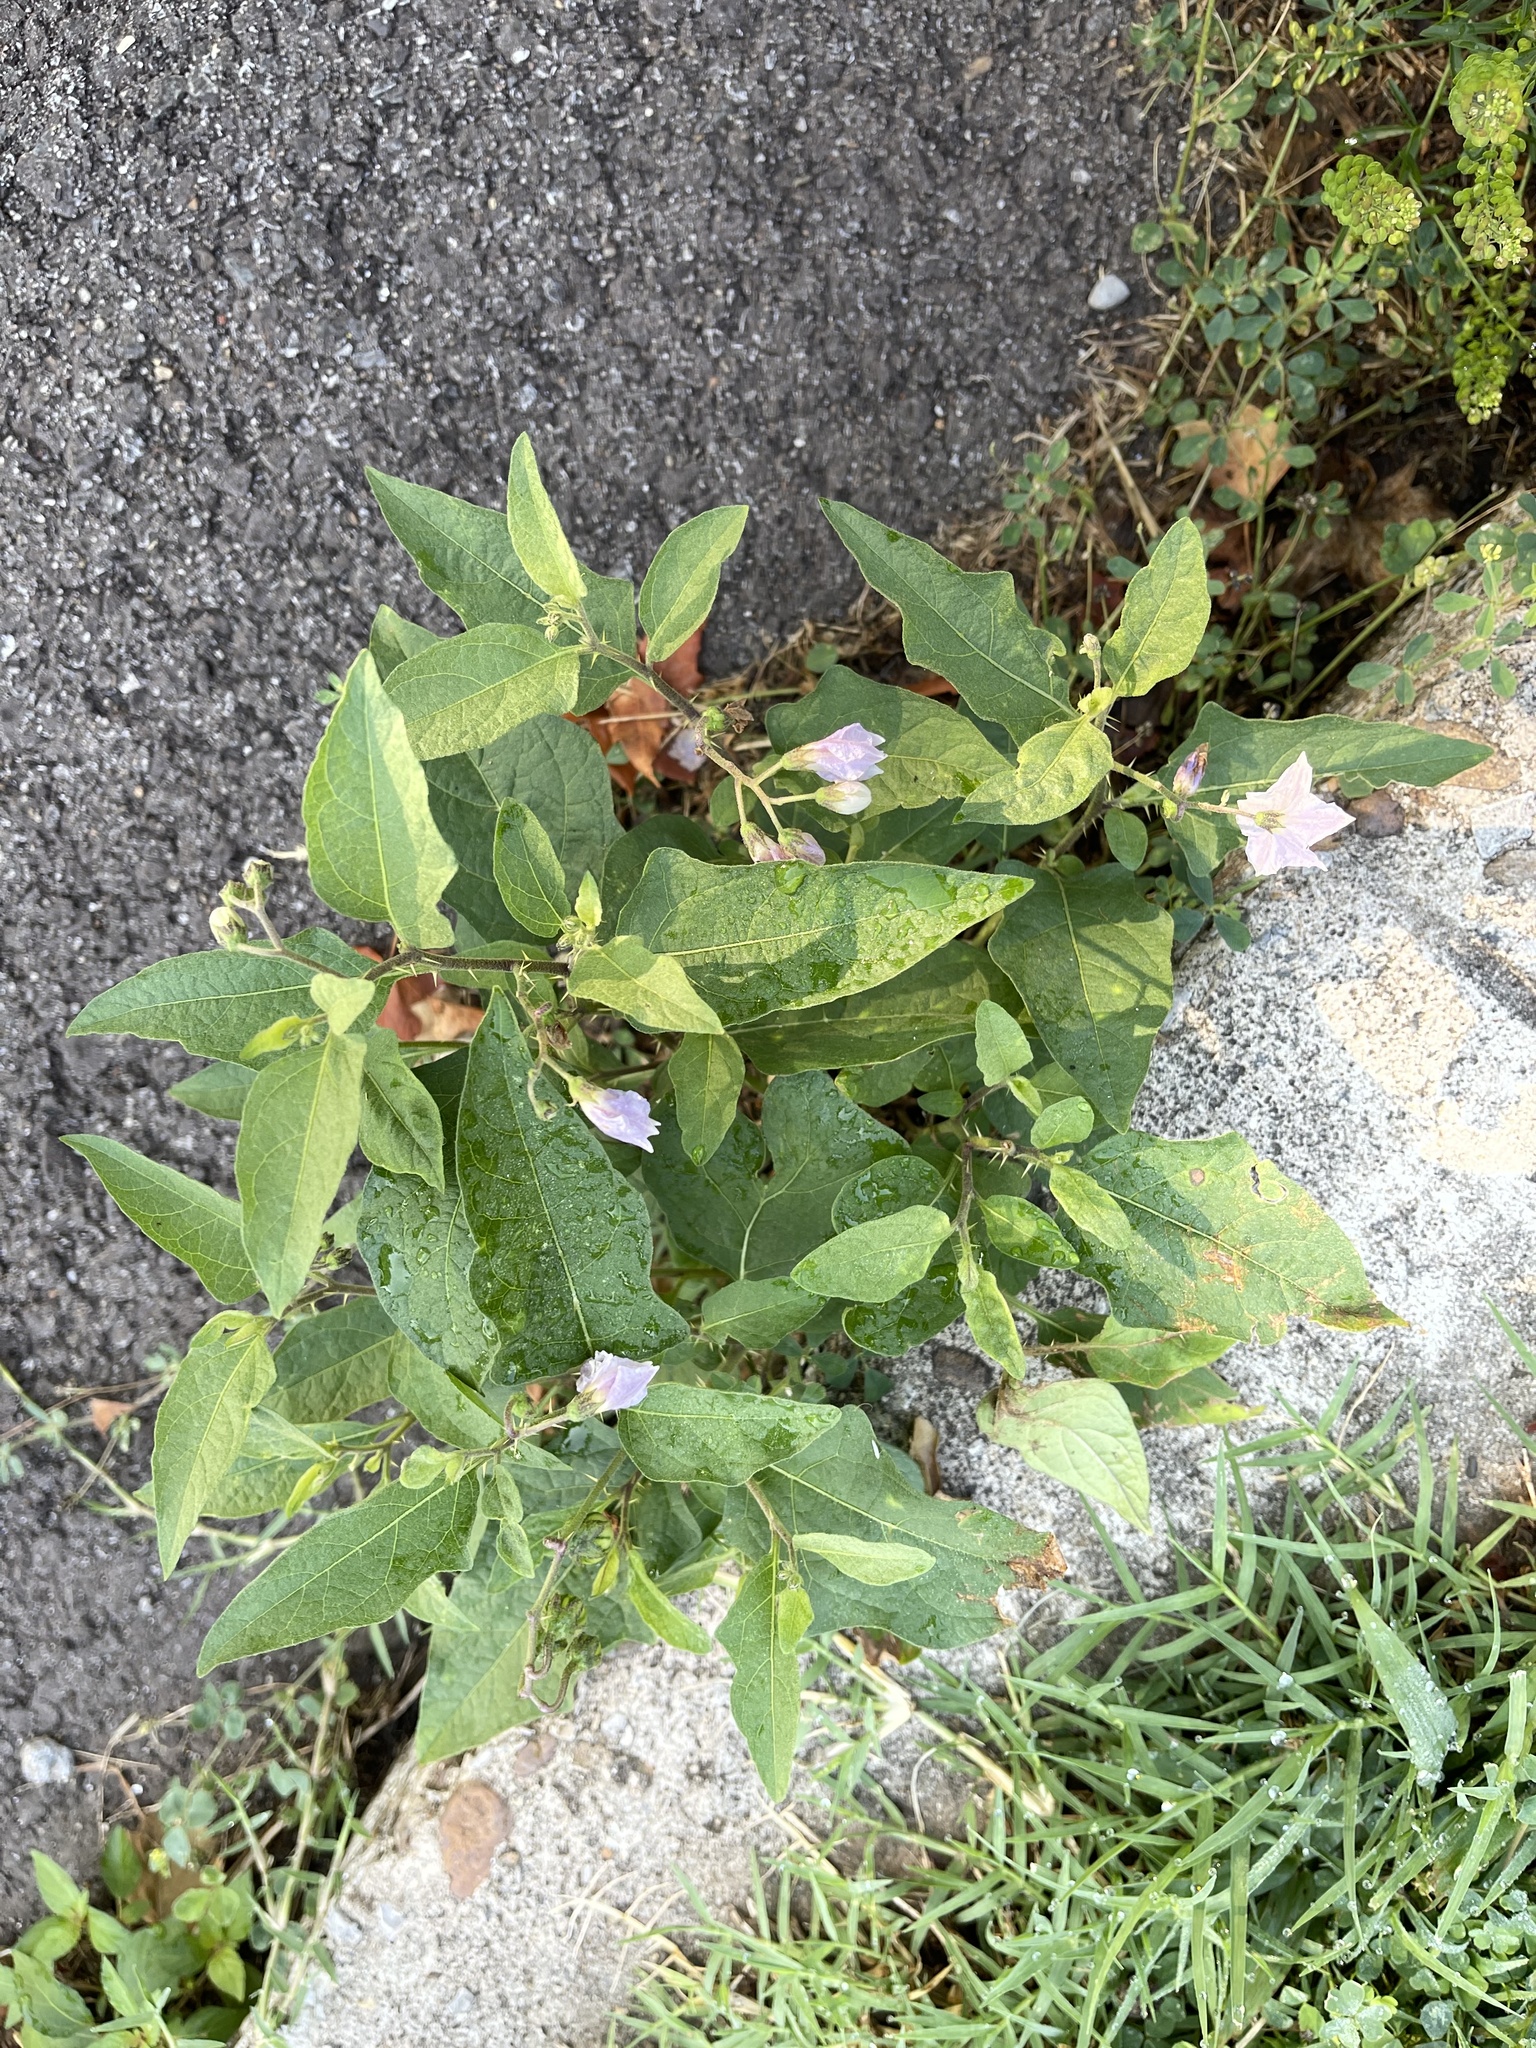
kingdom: Plantae
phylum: Tracheophyta
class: Magnoliopsida
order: Solanales
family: Solanaceae
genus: Solanum
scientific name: Solanum carolinense
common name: Horse-nettle
